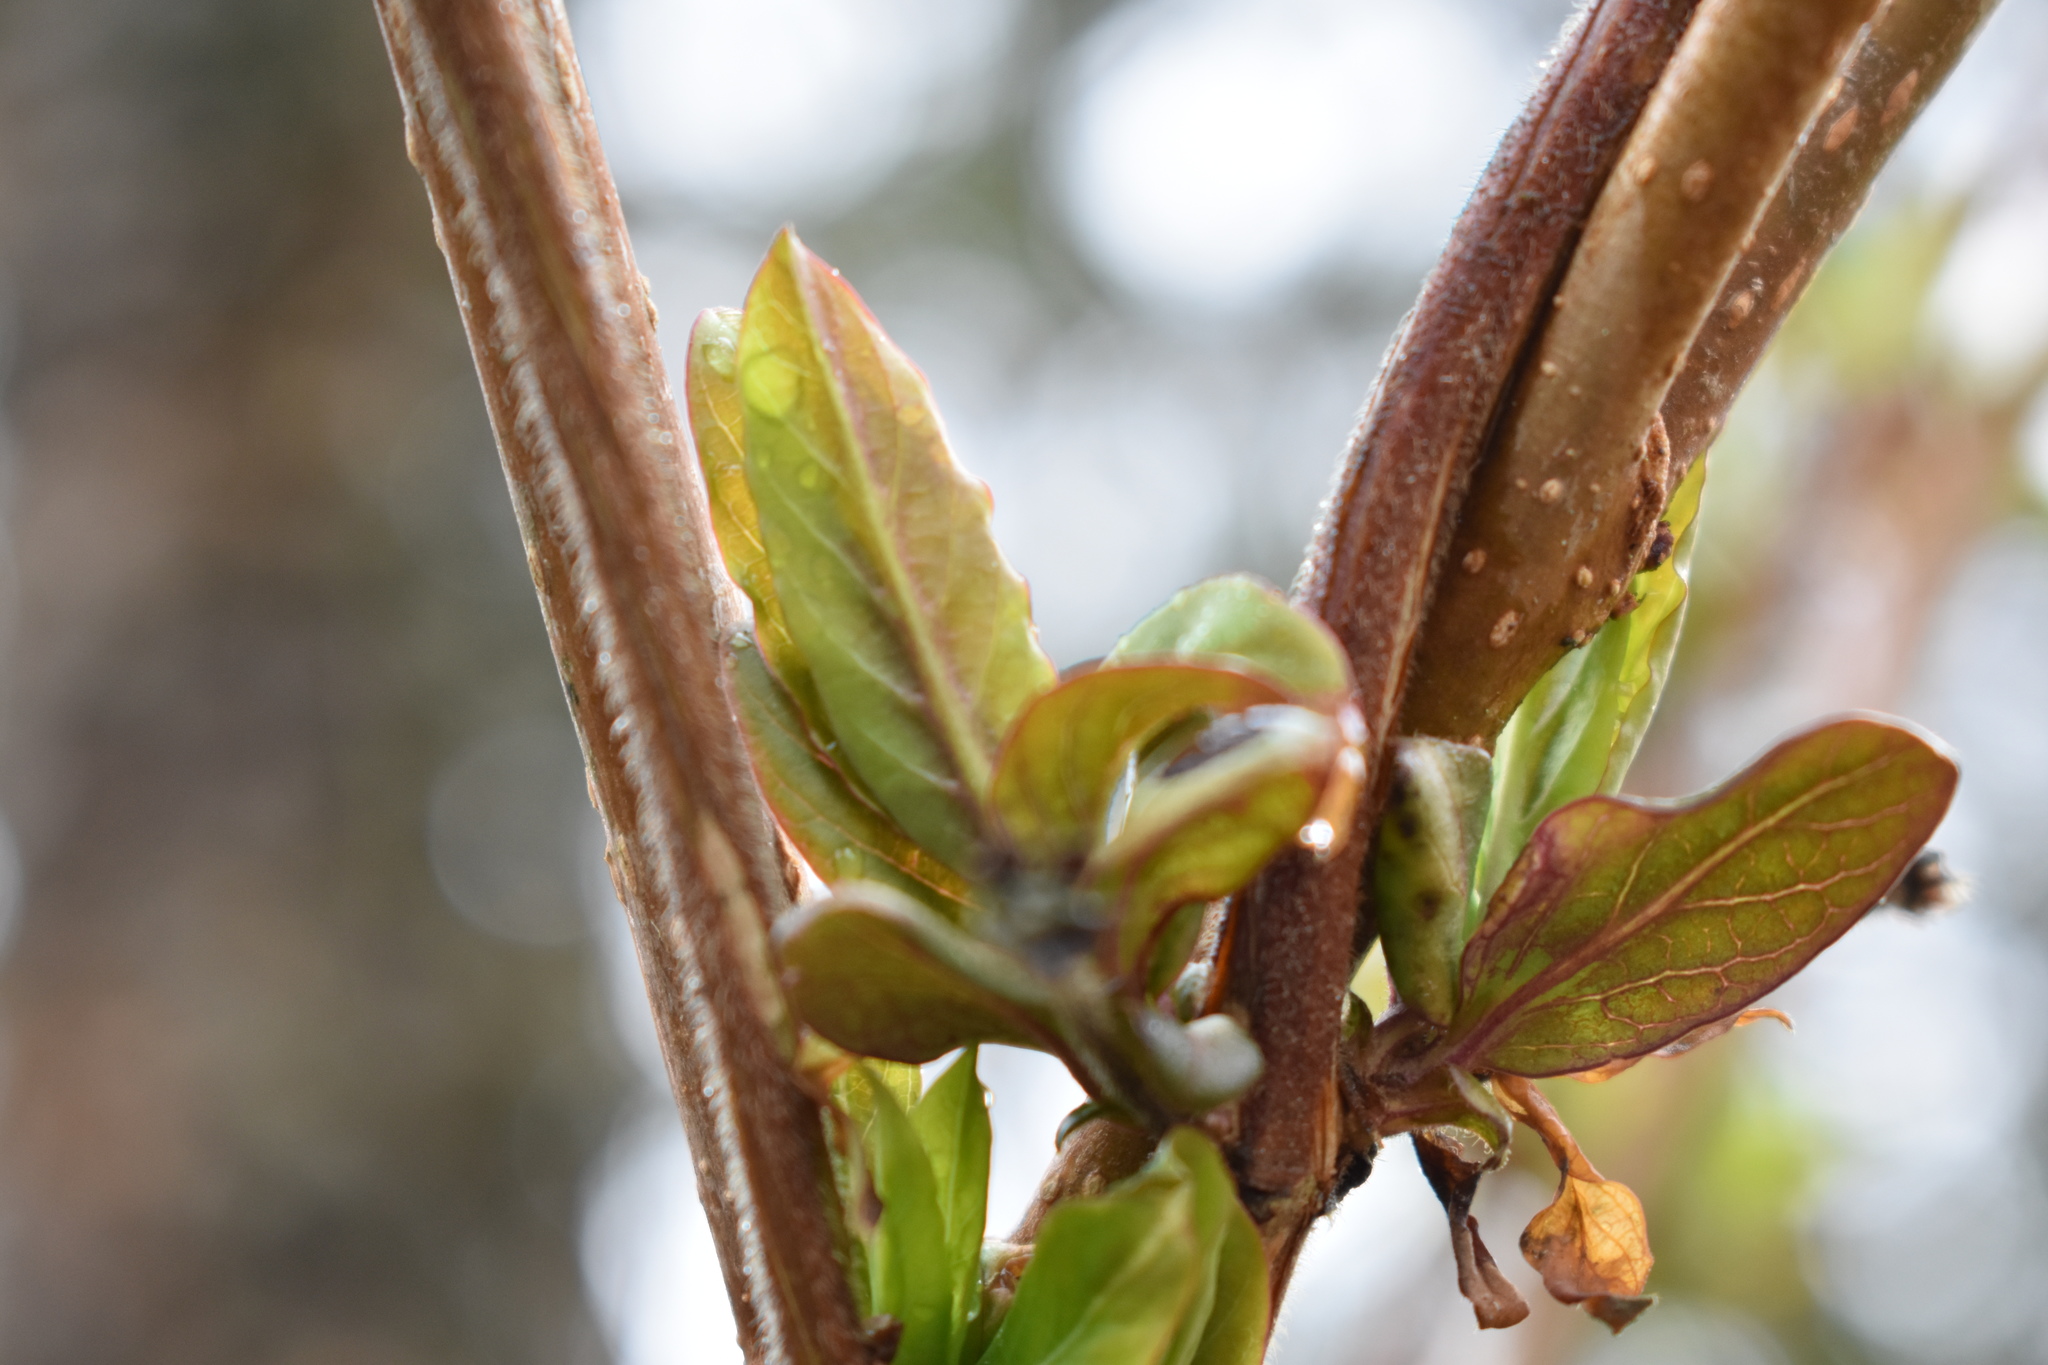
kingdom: Plantae
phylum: Tracheophyta
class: Magnoliopsida
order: Dipsacales
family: Caprifoliaceae
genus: Lonicera
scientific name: Lonicera japonica
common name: Japanese honeysuckle
